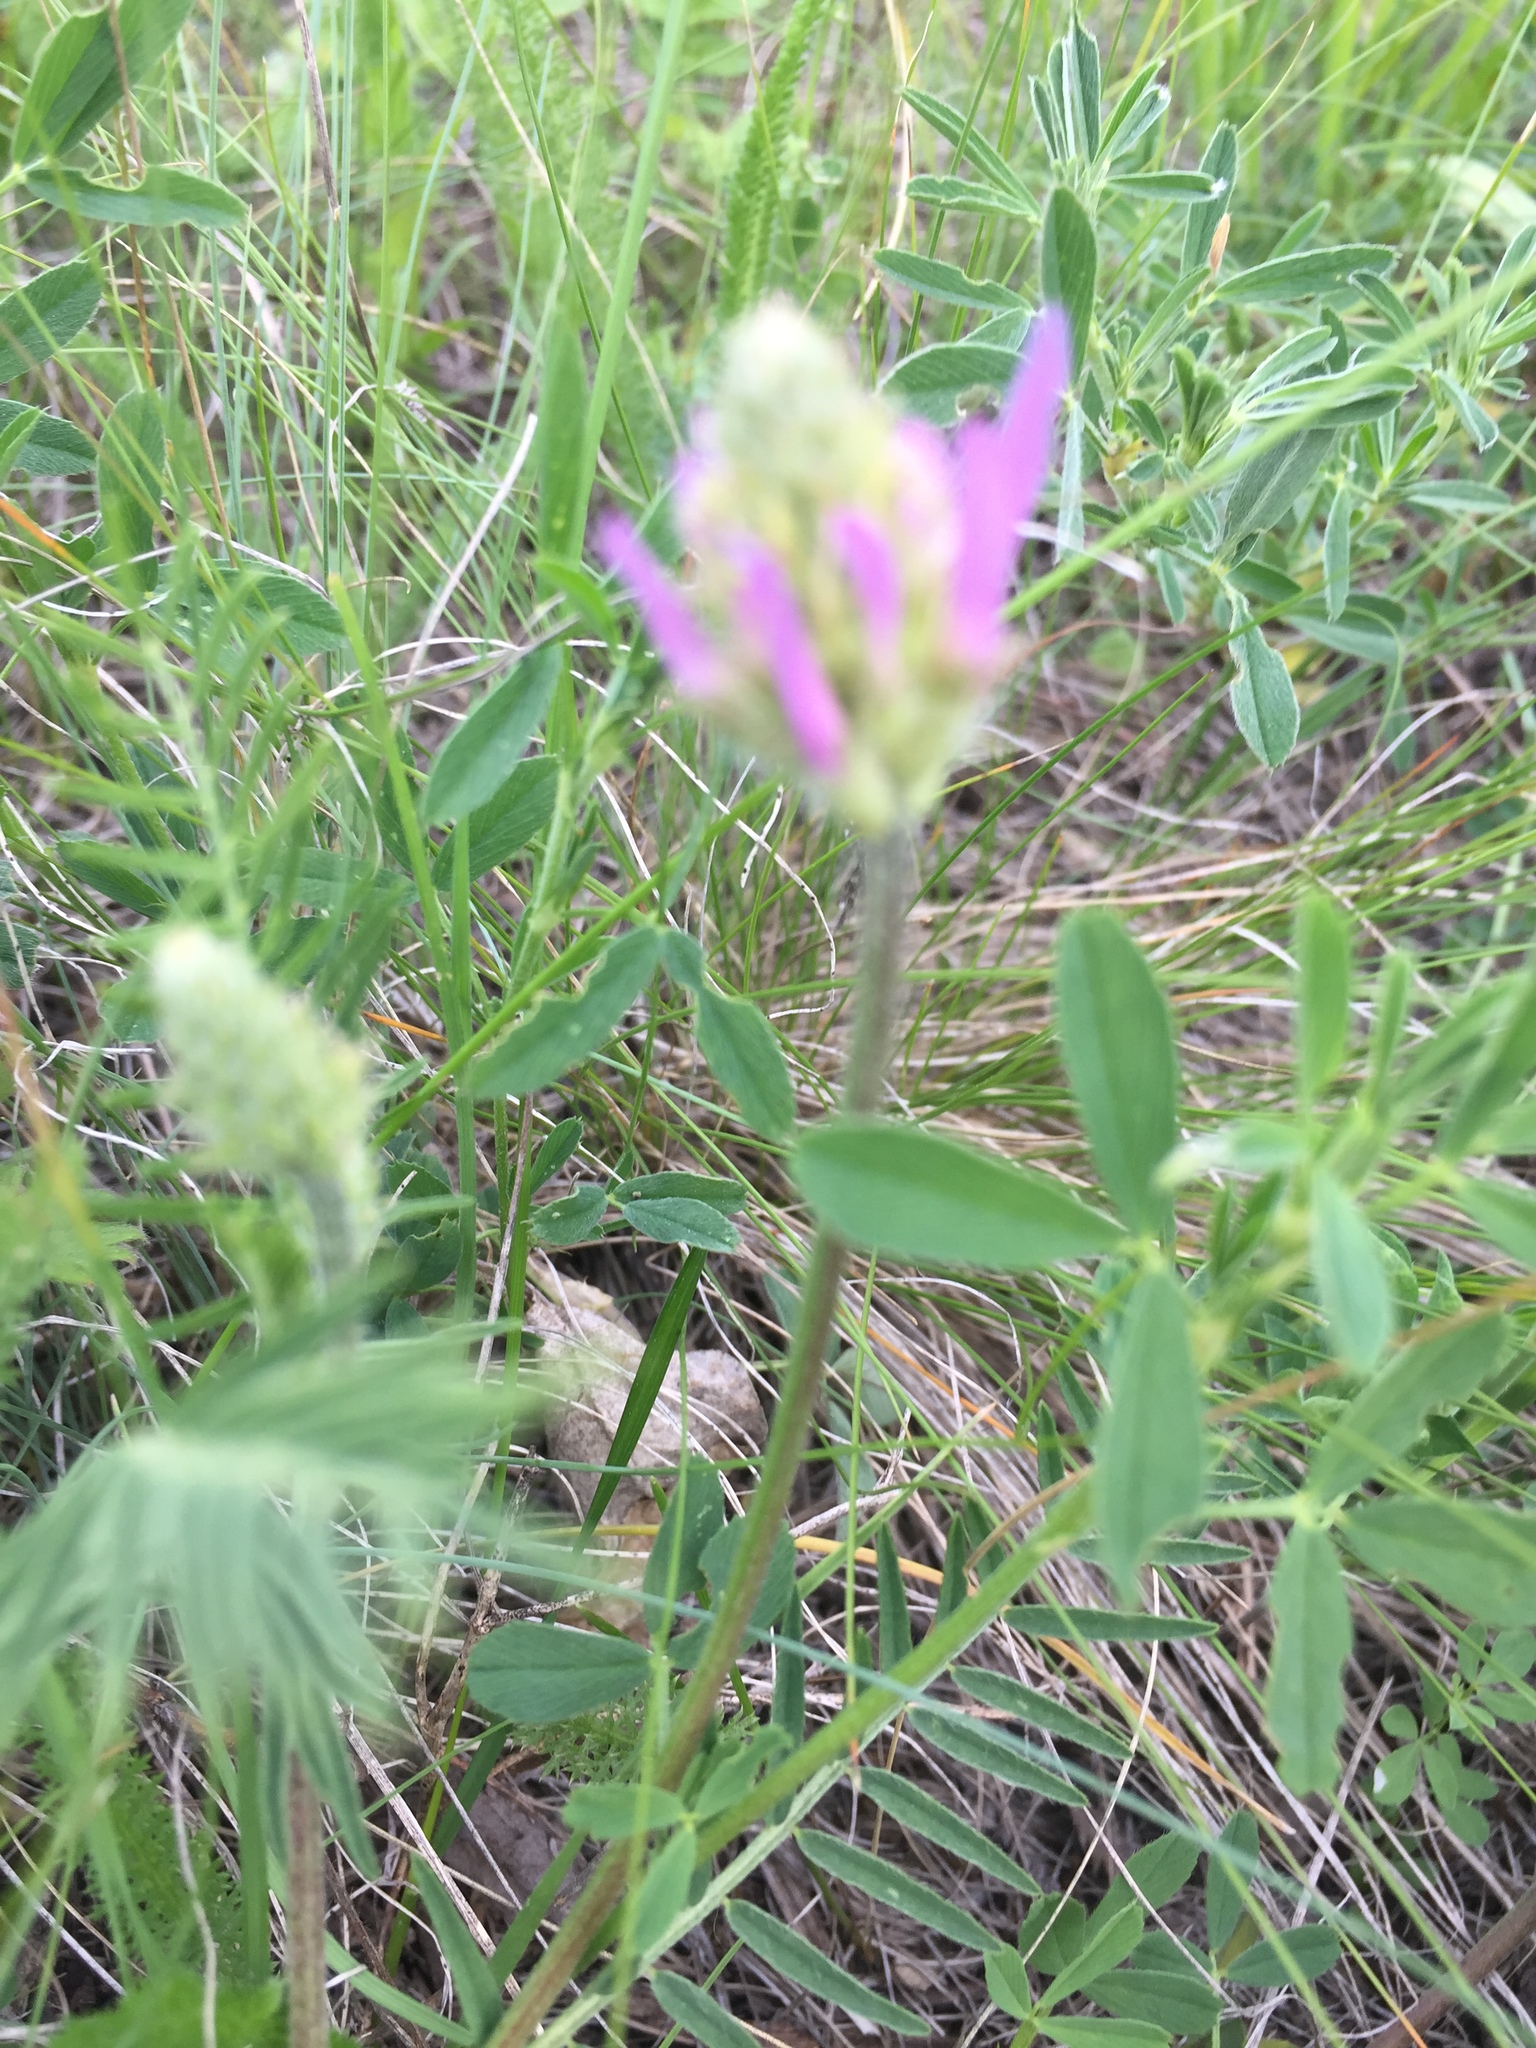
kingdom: Plantae
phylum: Tracheophyta
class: Magnoliopsida
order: Fabales
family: Fabaceae
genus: Astragalus
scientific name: Astragalus onobrychis
